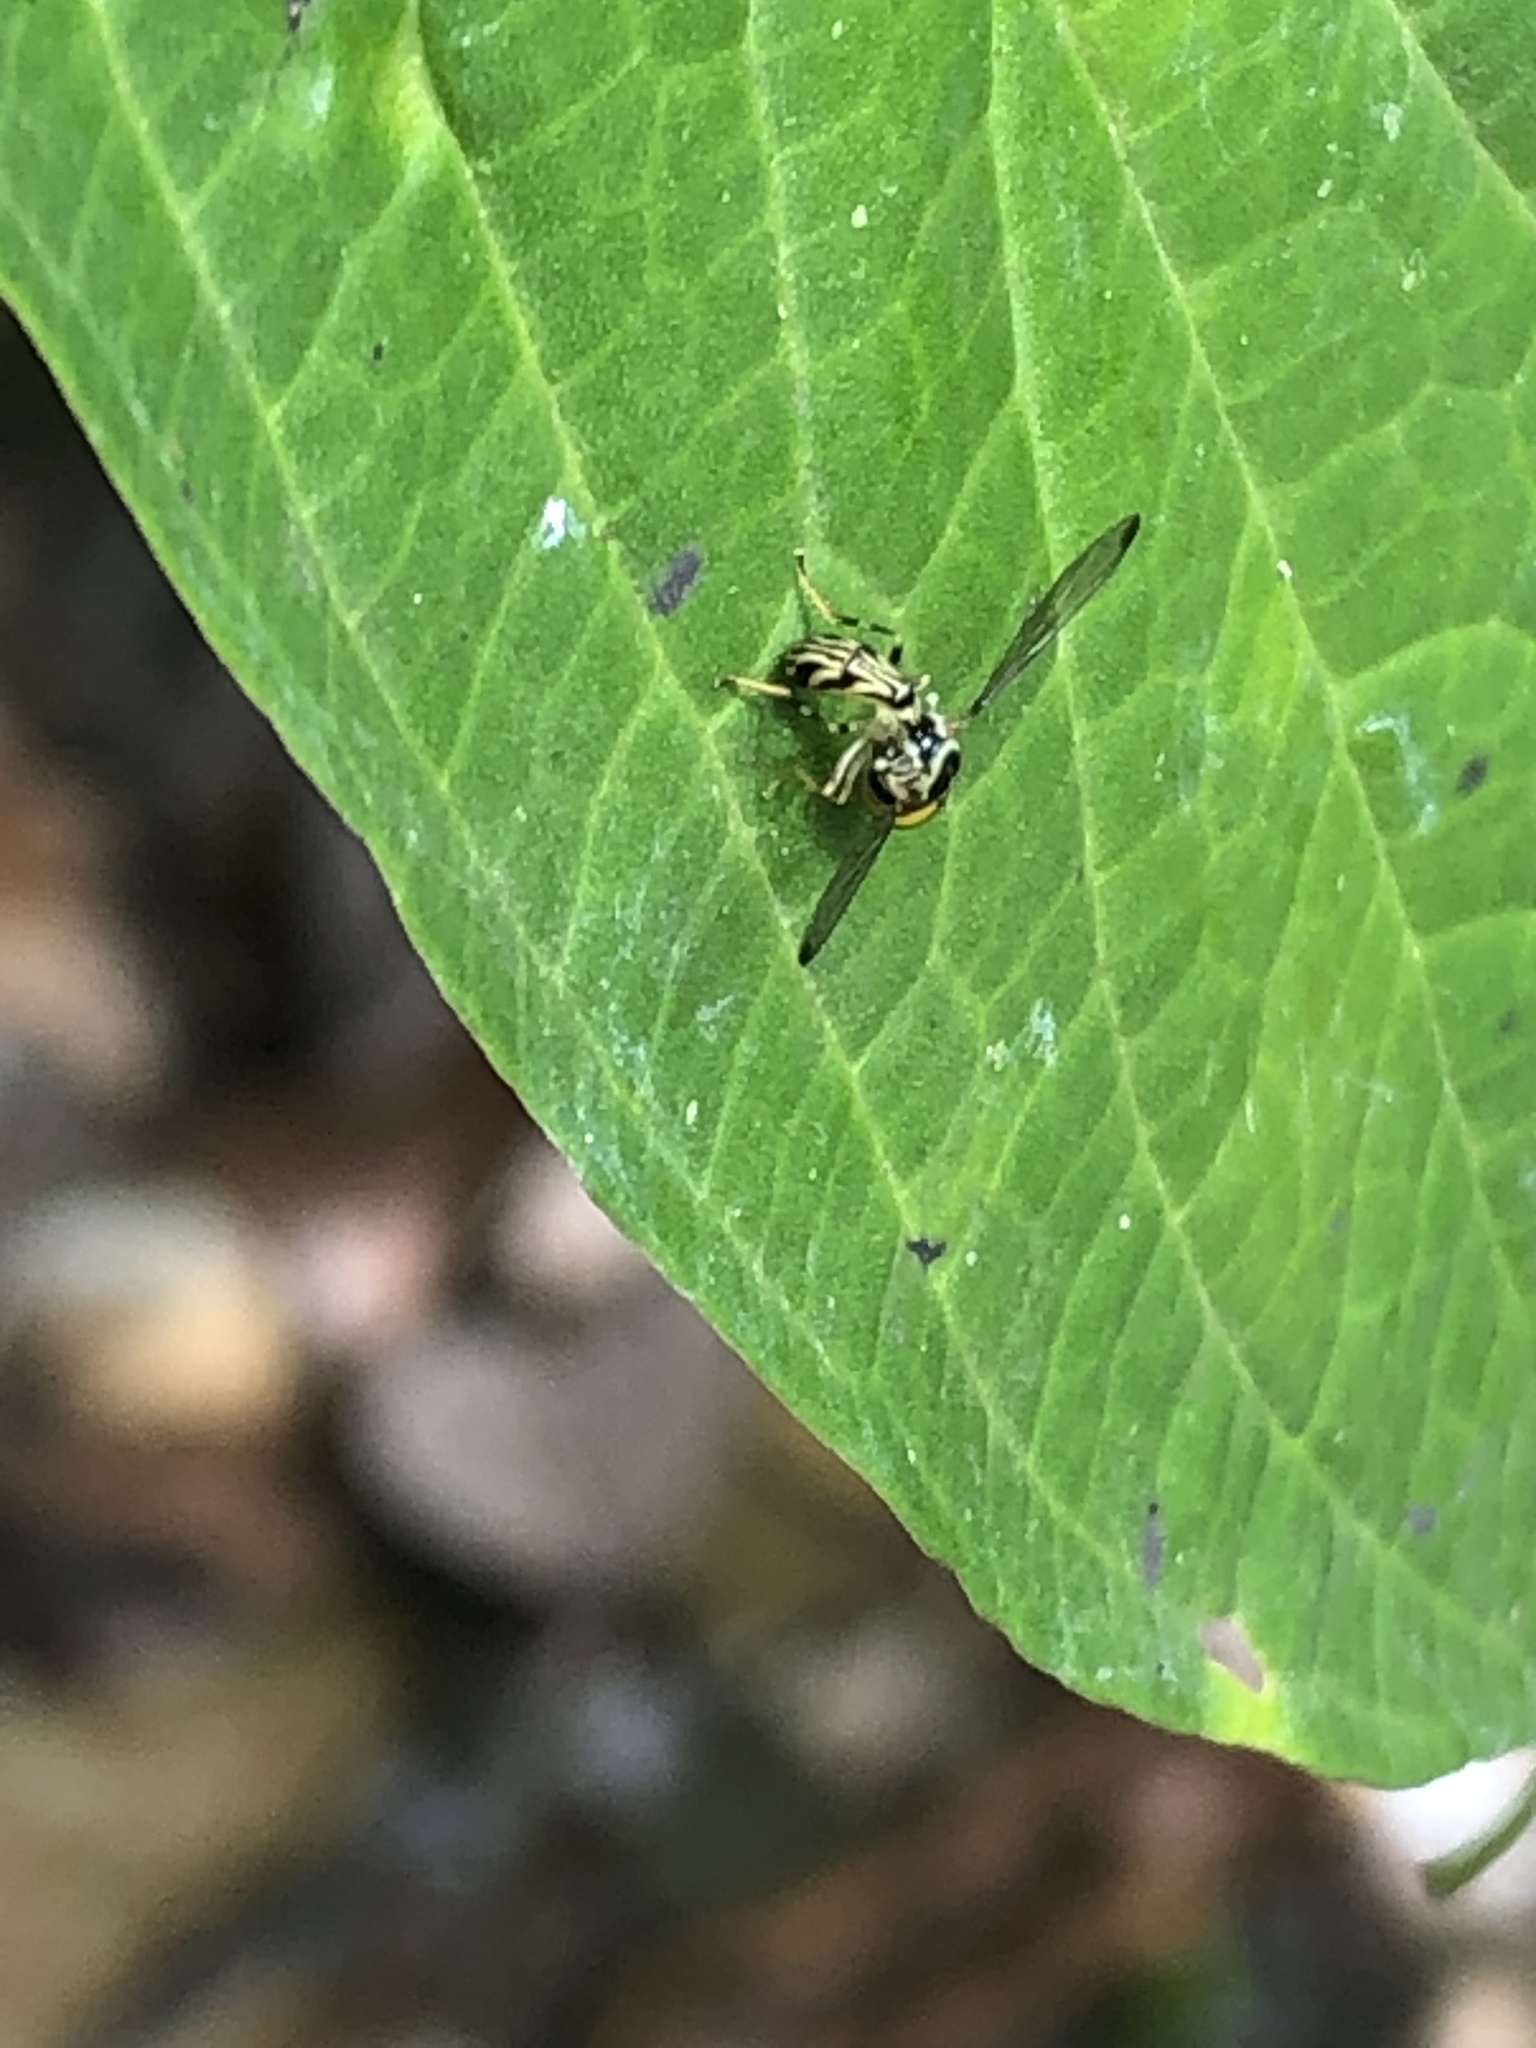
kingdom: Animalia
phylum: Arthropoda
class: Insecta
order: Diptera
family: Syrphidae
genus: Ocyptamus
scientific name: Ocyptamus elnora
